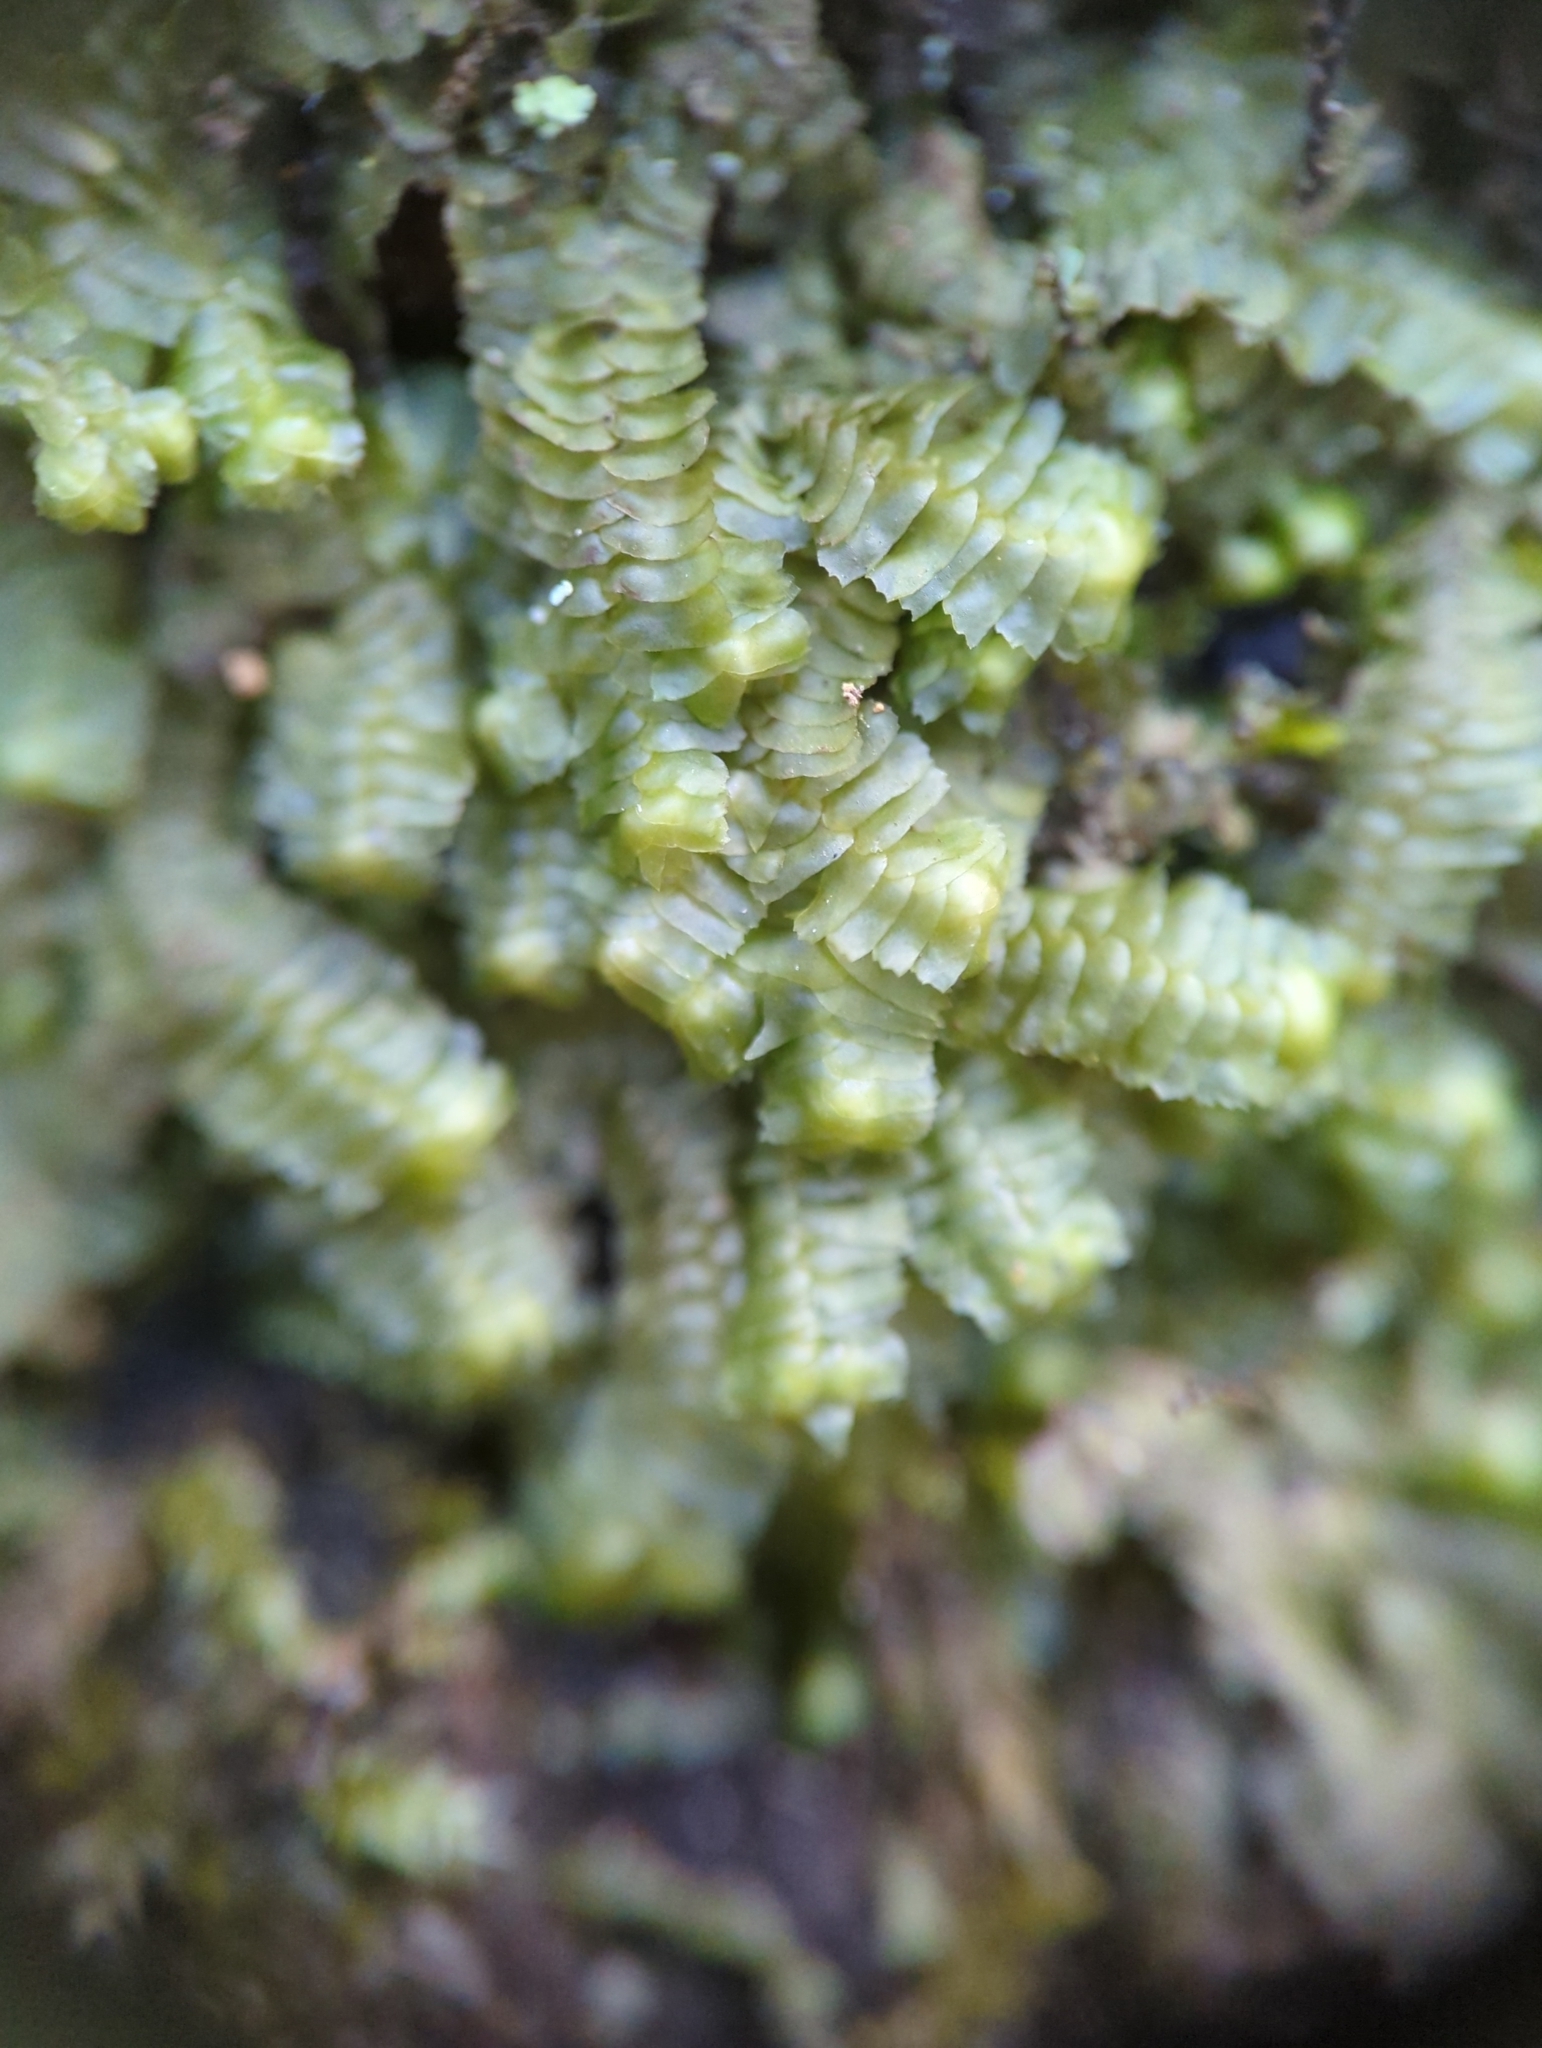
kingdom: Plantae
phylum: Marchantiophyta
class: Jungermanniopsida
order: Jungermanniales
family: Lepidoziaceae
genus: Bazzania
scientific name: Bazzania trilobata
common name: Three-lobed whipwort
